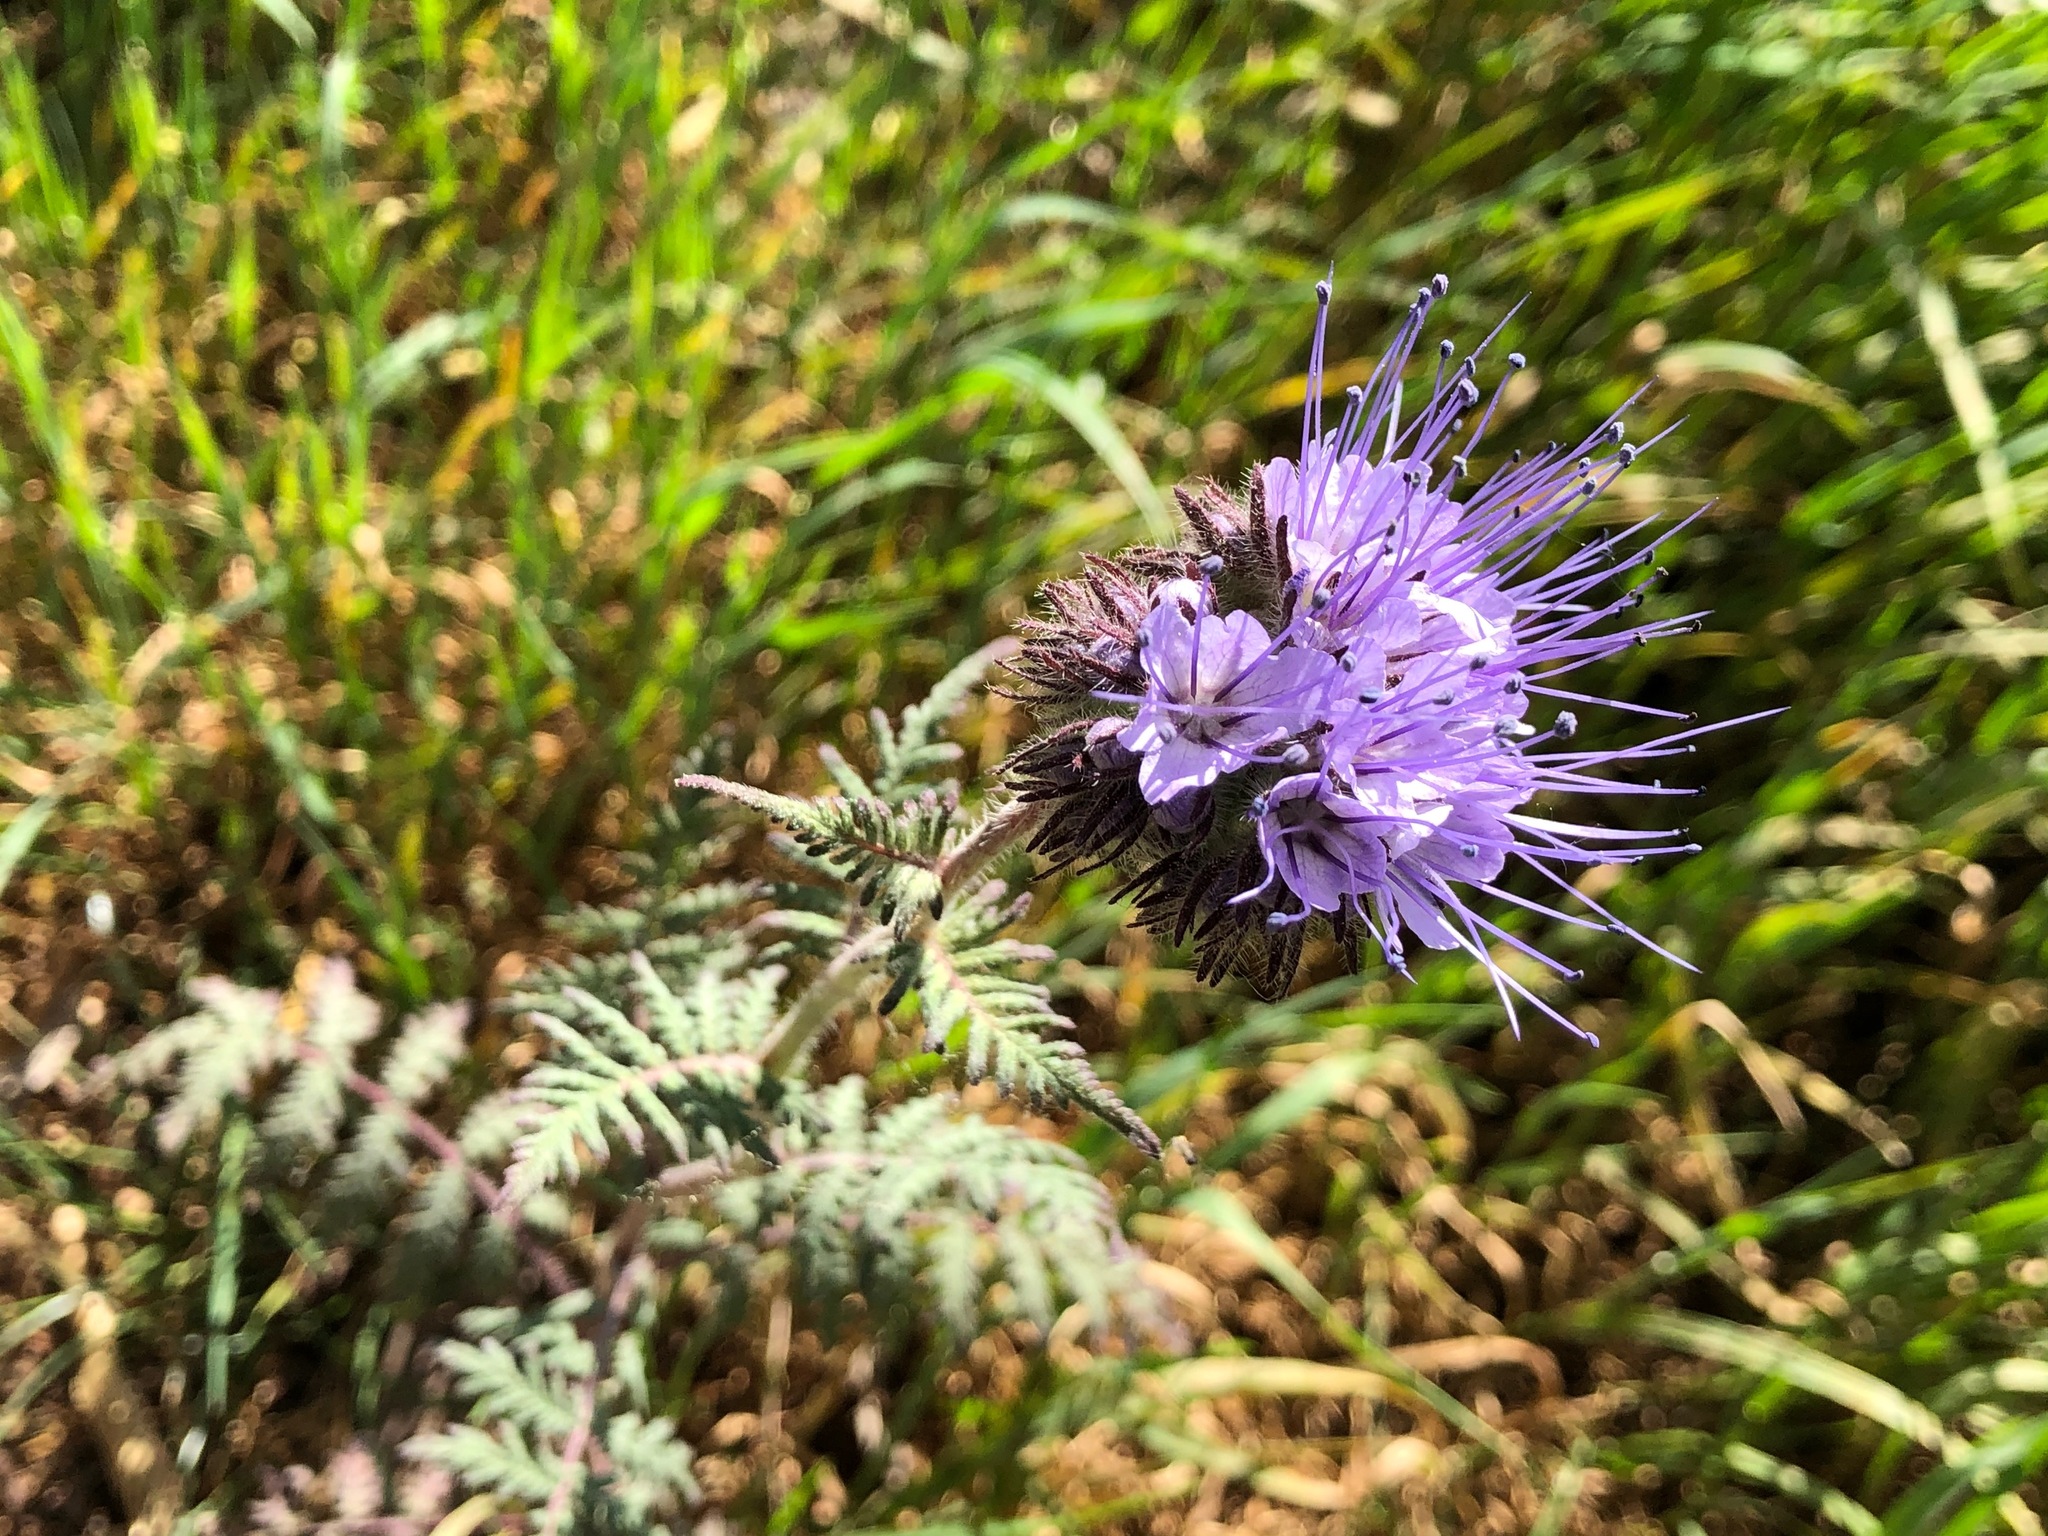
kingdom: Plantae
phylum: Tracheophyta
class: Magnoliopsida
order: Boraginales
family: Hydrophyllaceae
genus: Phacelia
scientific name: Phacelia tanacetifolia
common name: Phacelia
